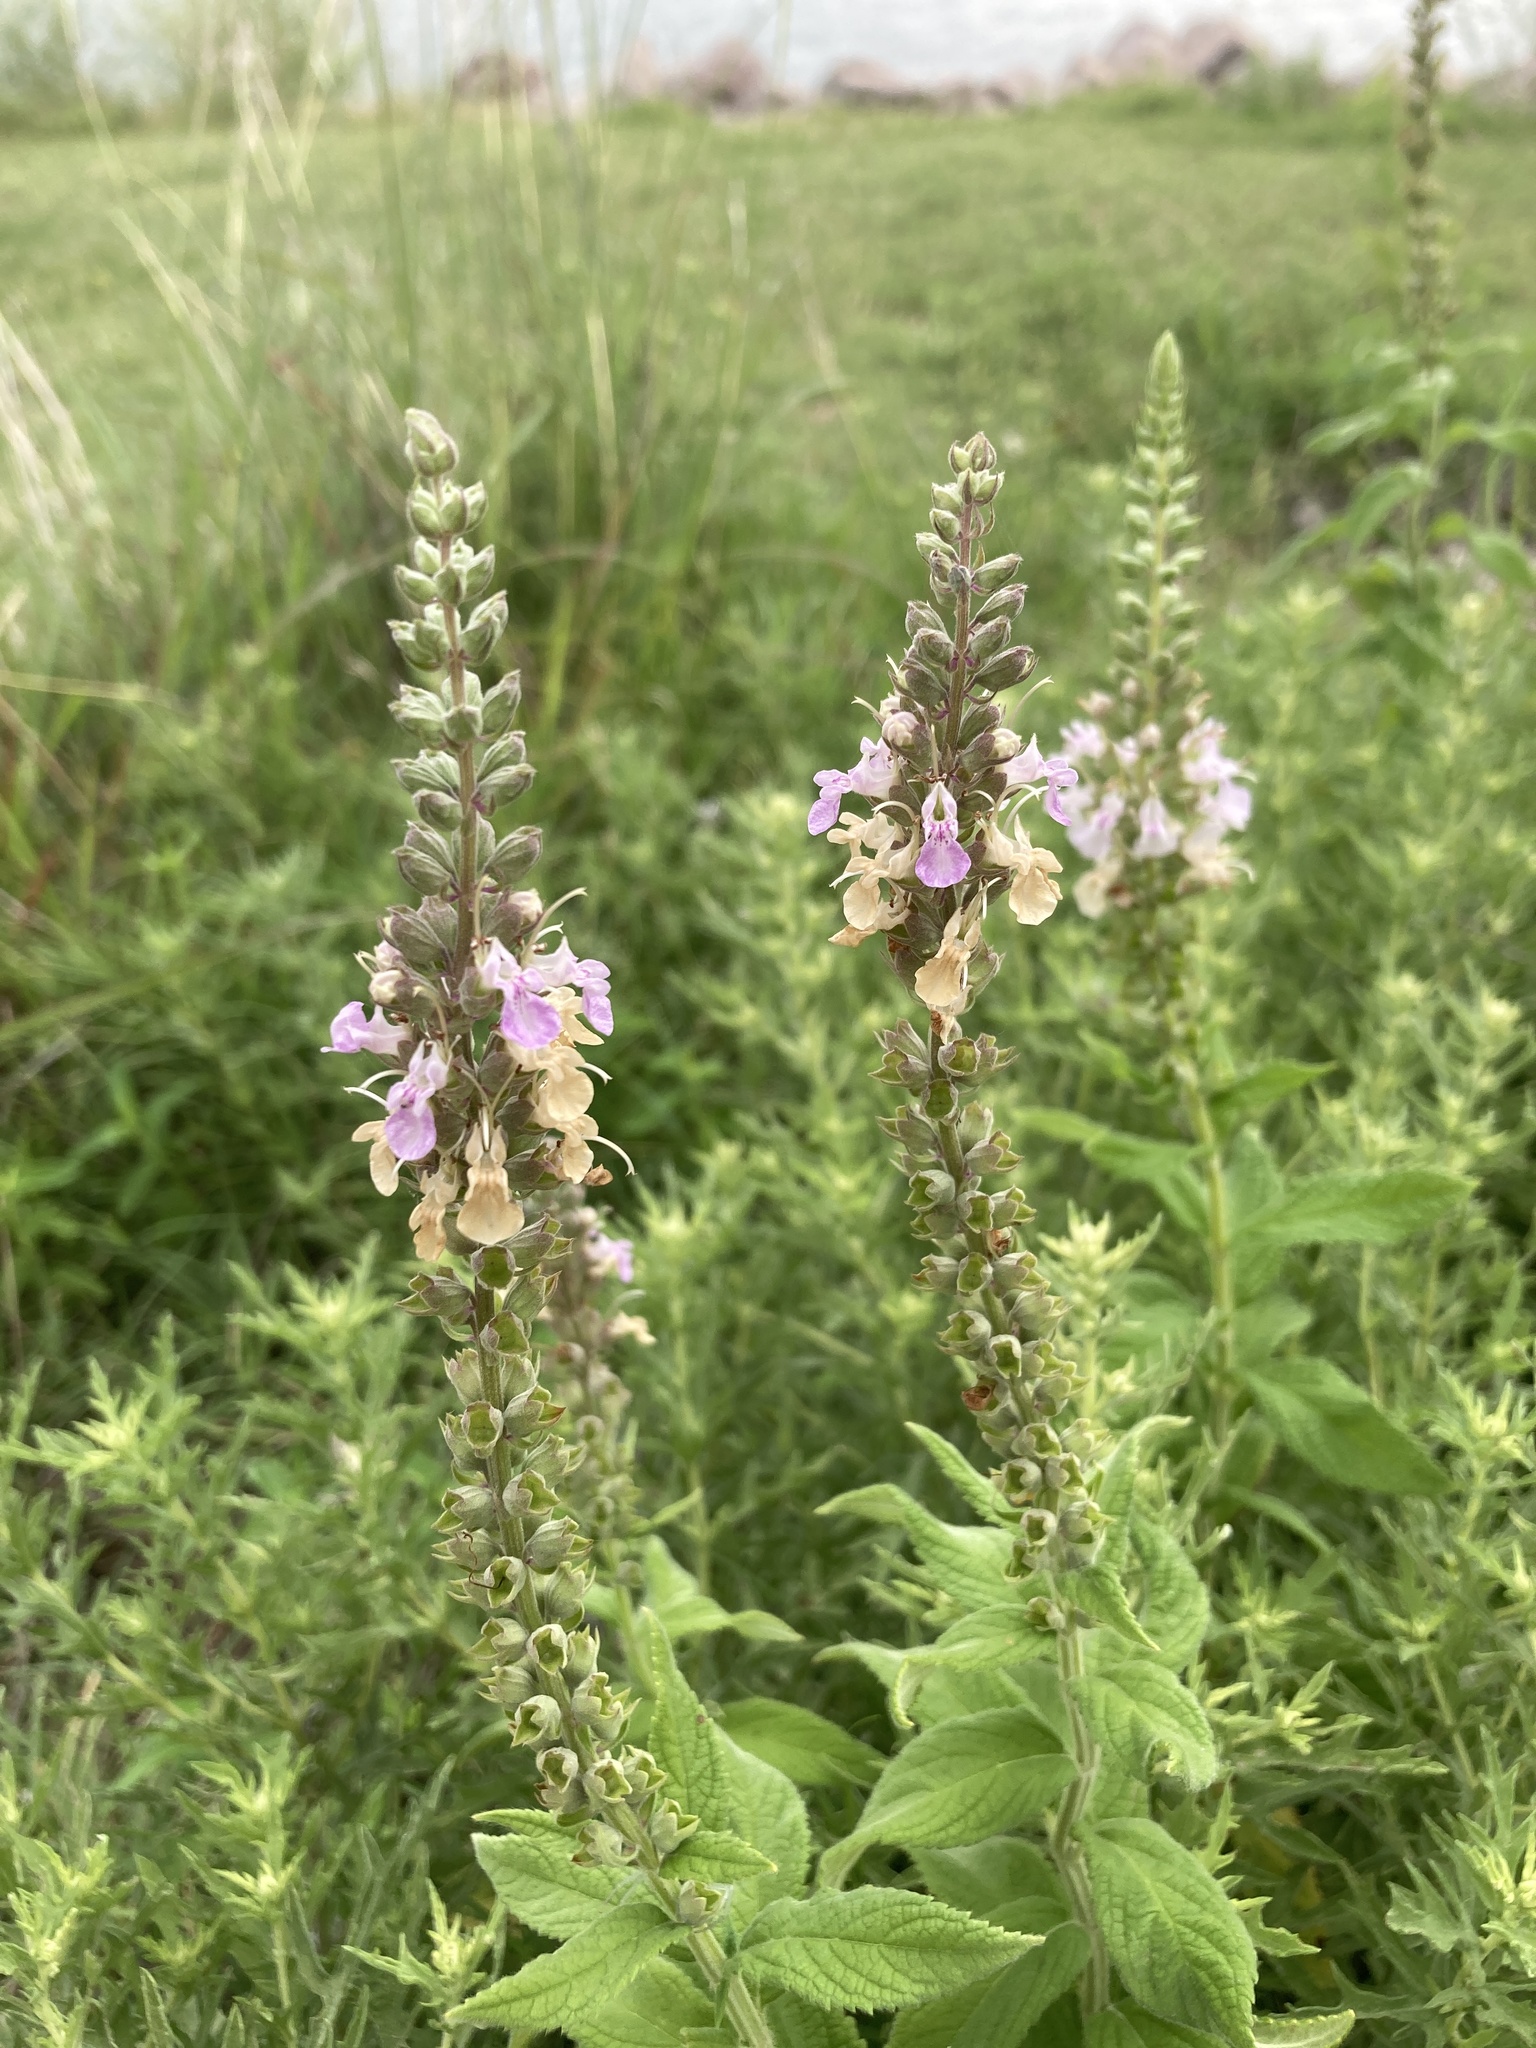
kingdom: Plantae
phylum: Tracheophyta
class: Magnoliopsida
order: Lamiales
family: Lamiaceae
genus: Teucrium
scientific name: Teucrium canadense
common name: American germander
